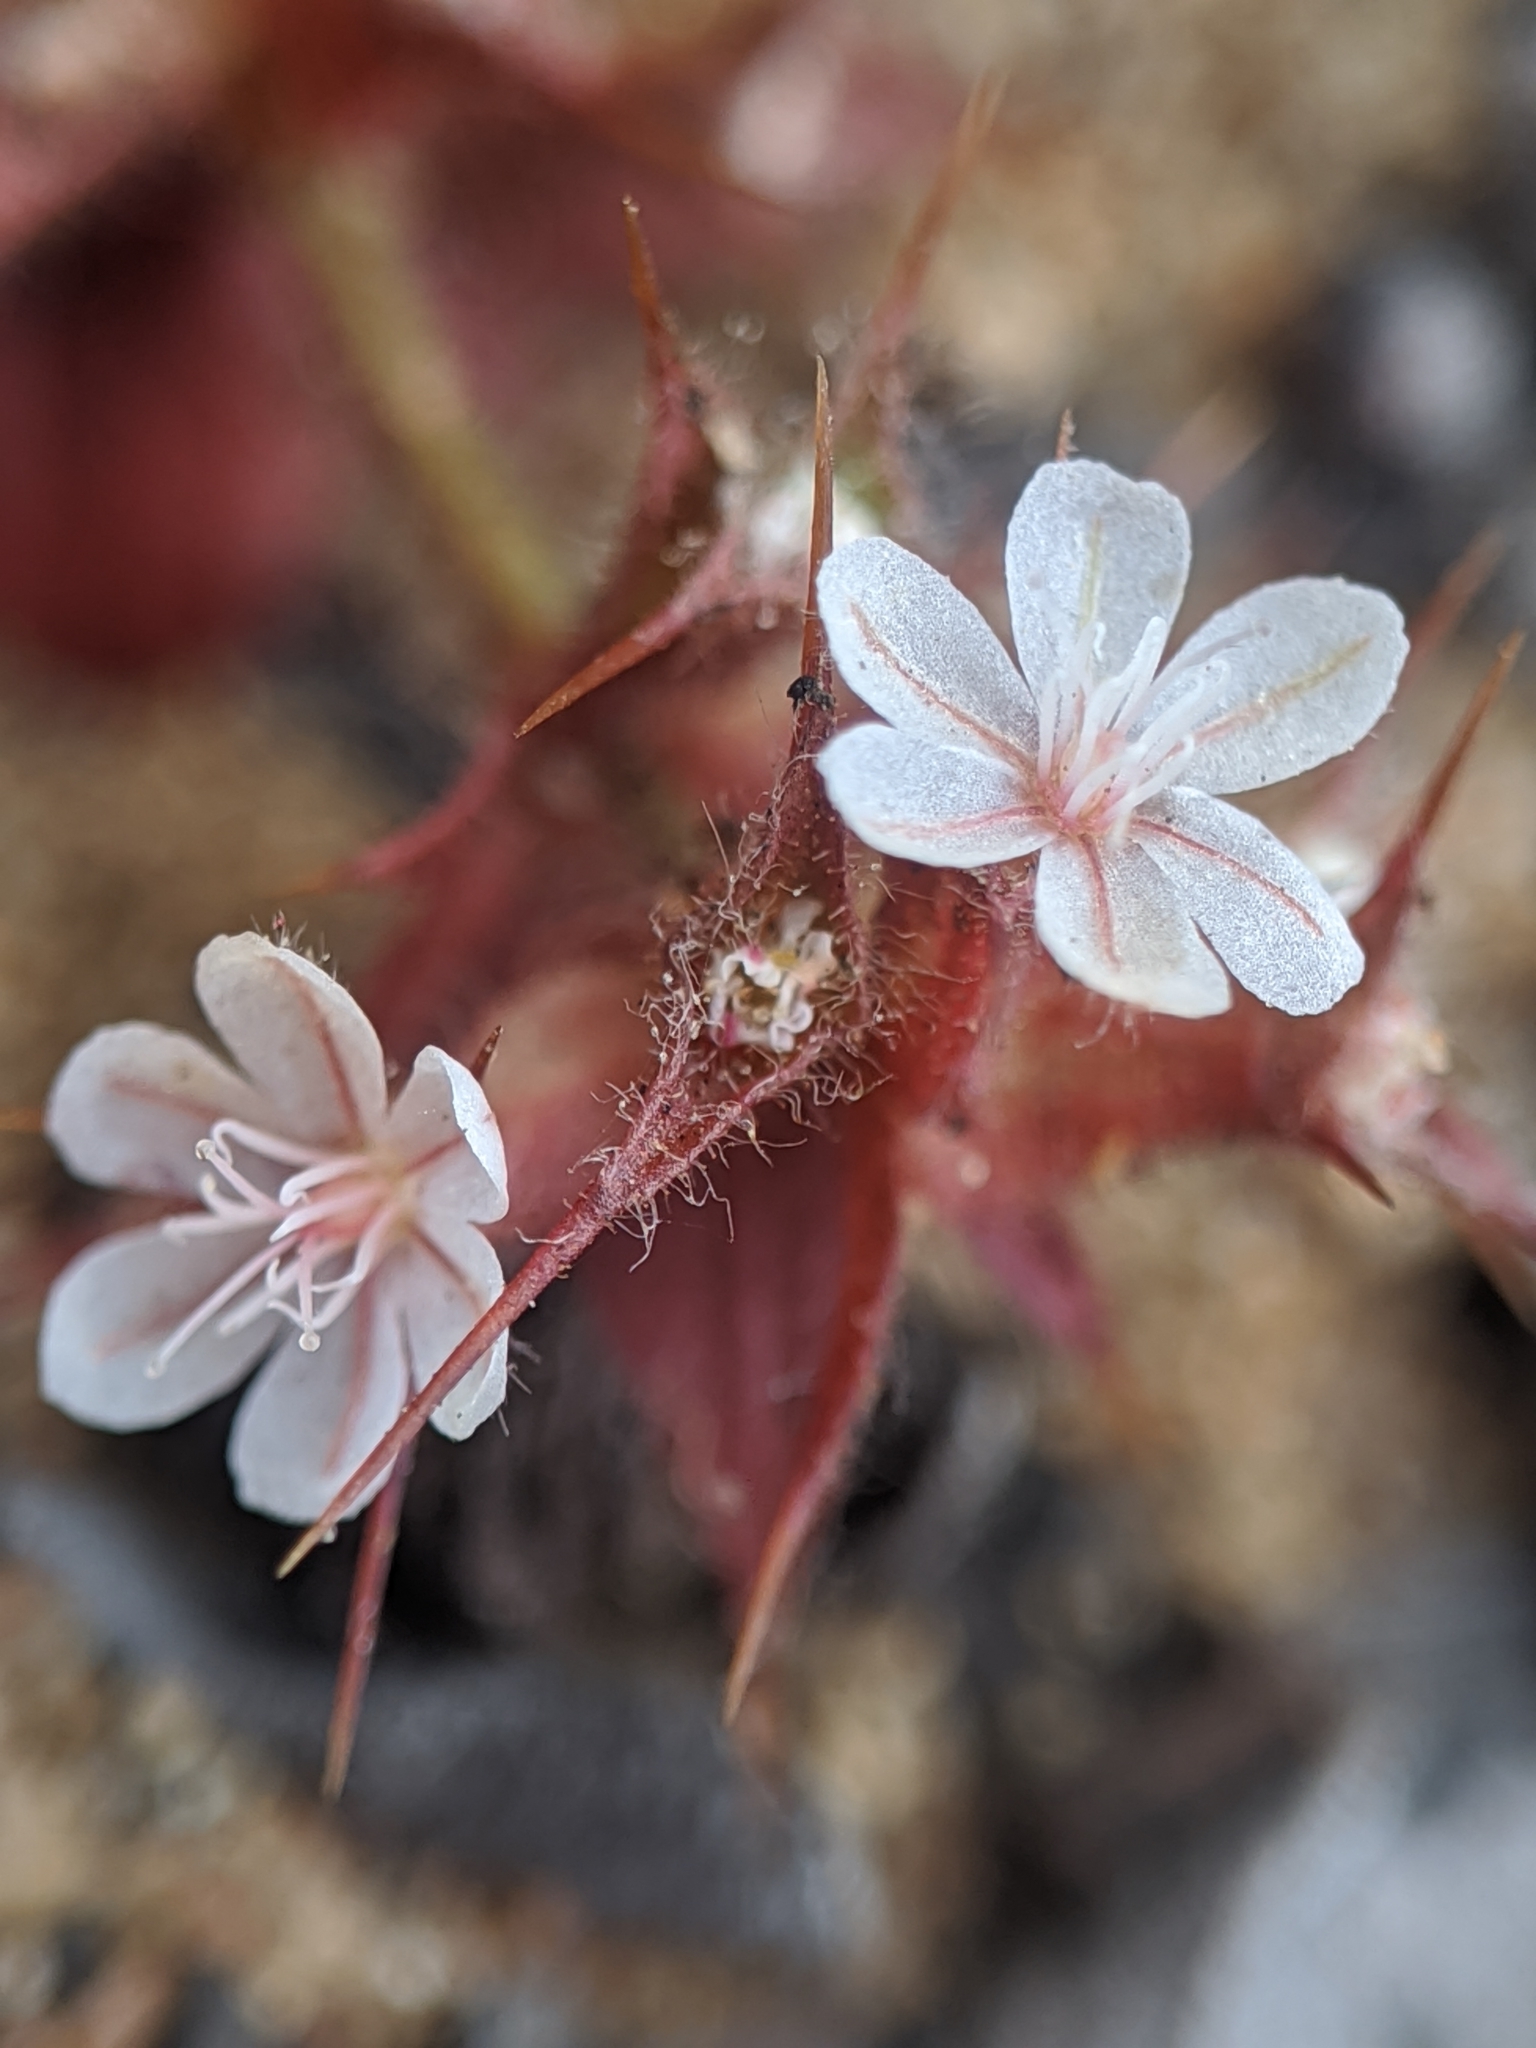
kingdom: Plantae
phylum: Tracheophyta
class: Magnoliopsida
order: Caryophyllales
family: Polygonaceae
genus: Mucronea
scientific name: Mucronea californica
